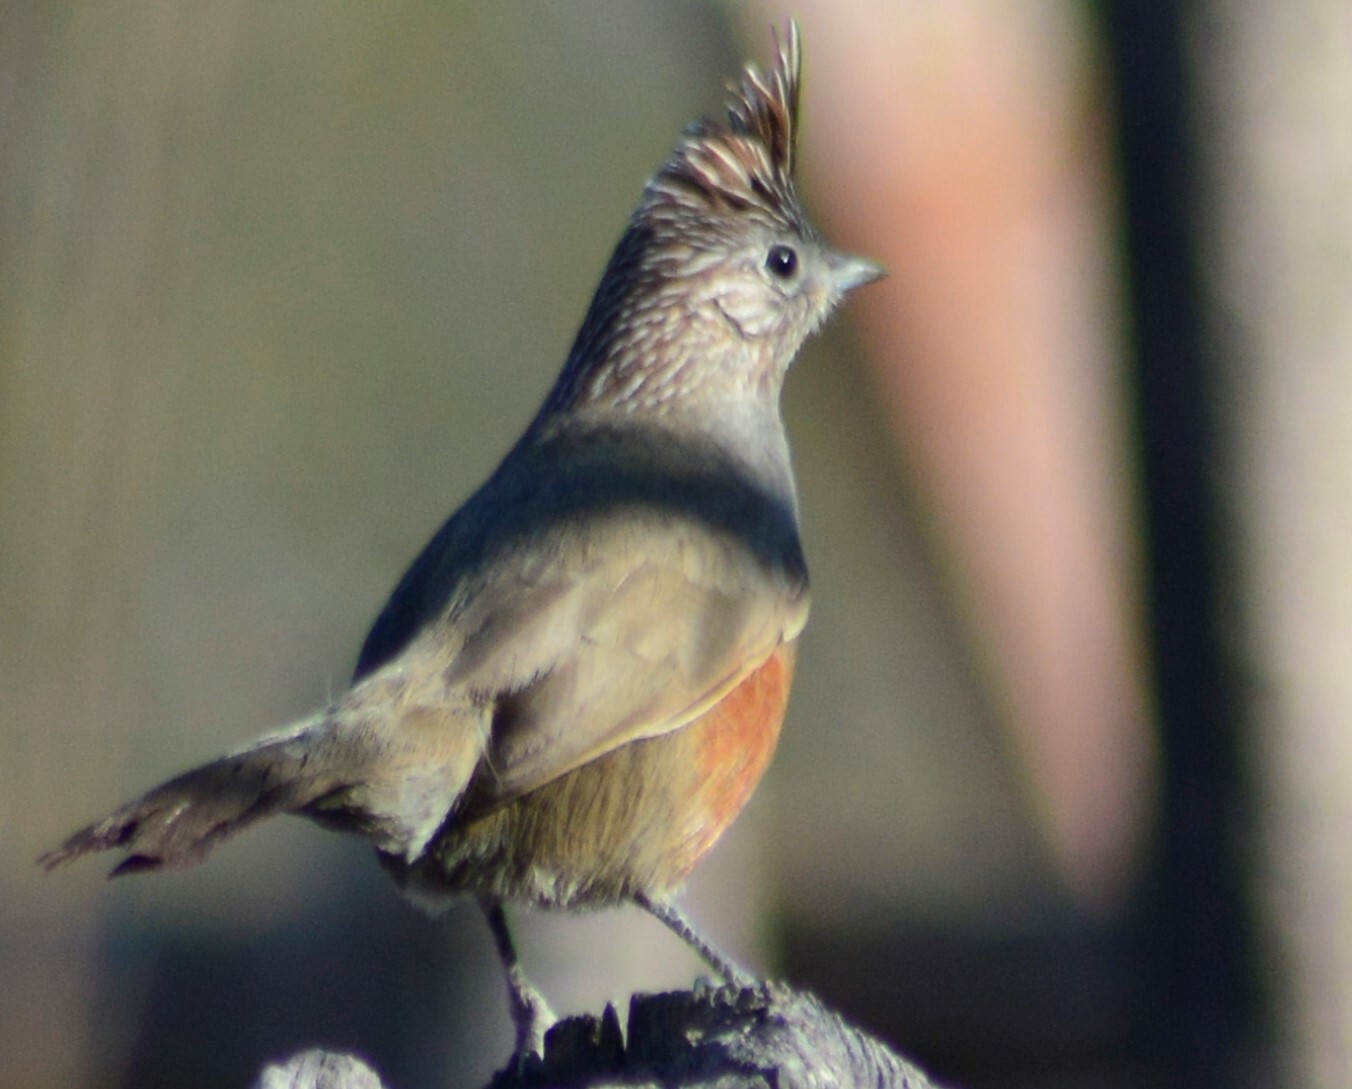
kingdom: Animalia
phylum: Chordata
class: Aves
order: Passeriformes
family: Rhinocryptidae
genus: Rhinocrypta
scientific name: Rhinocrypta lanceolata
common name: Crested gallito
